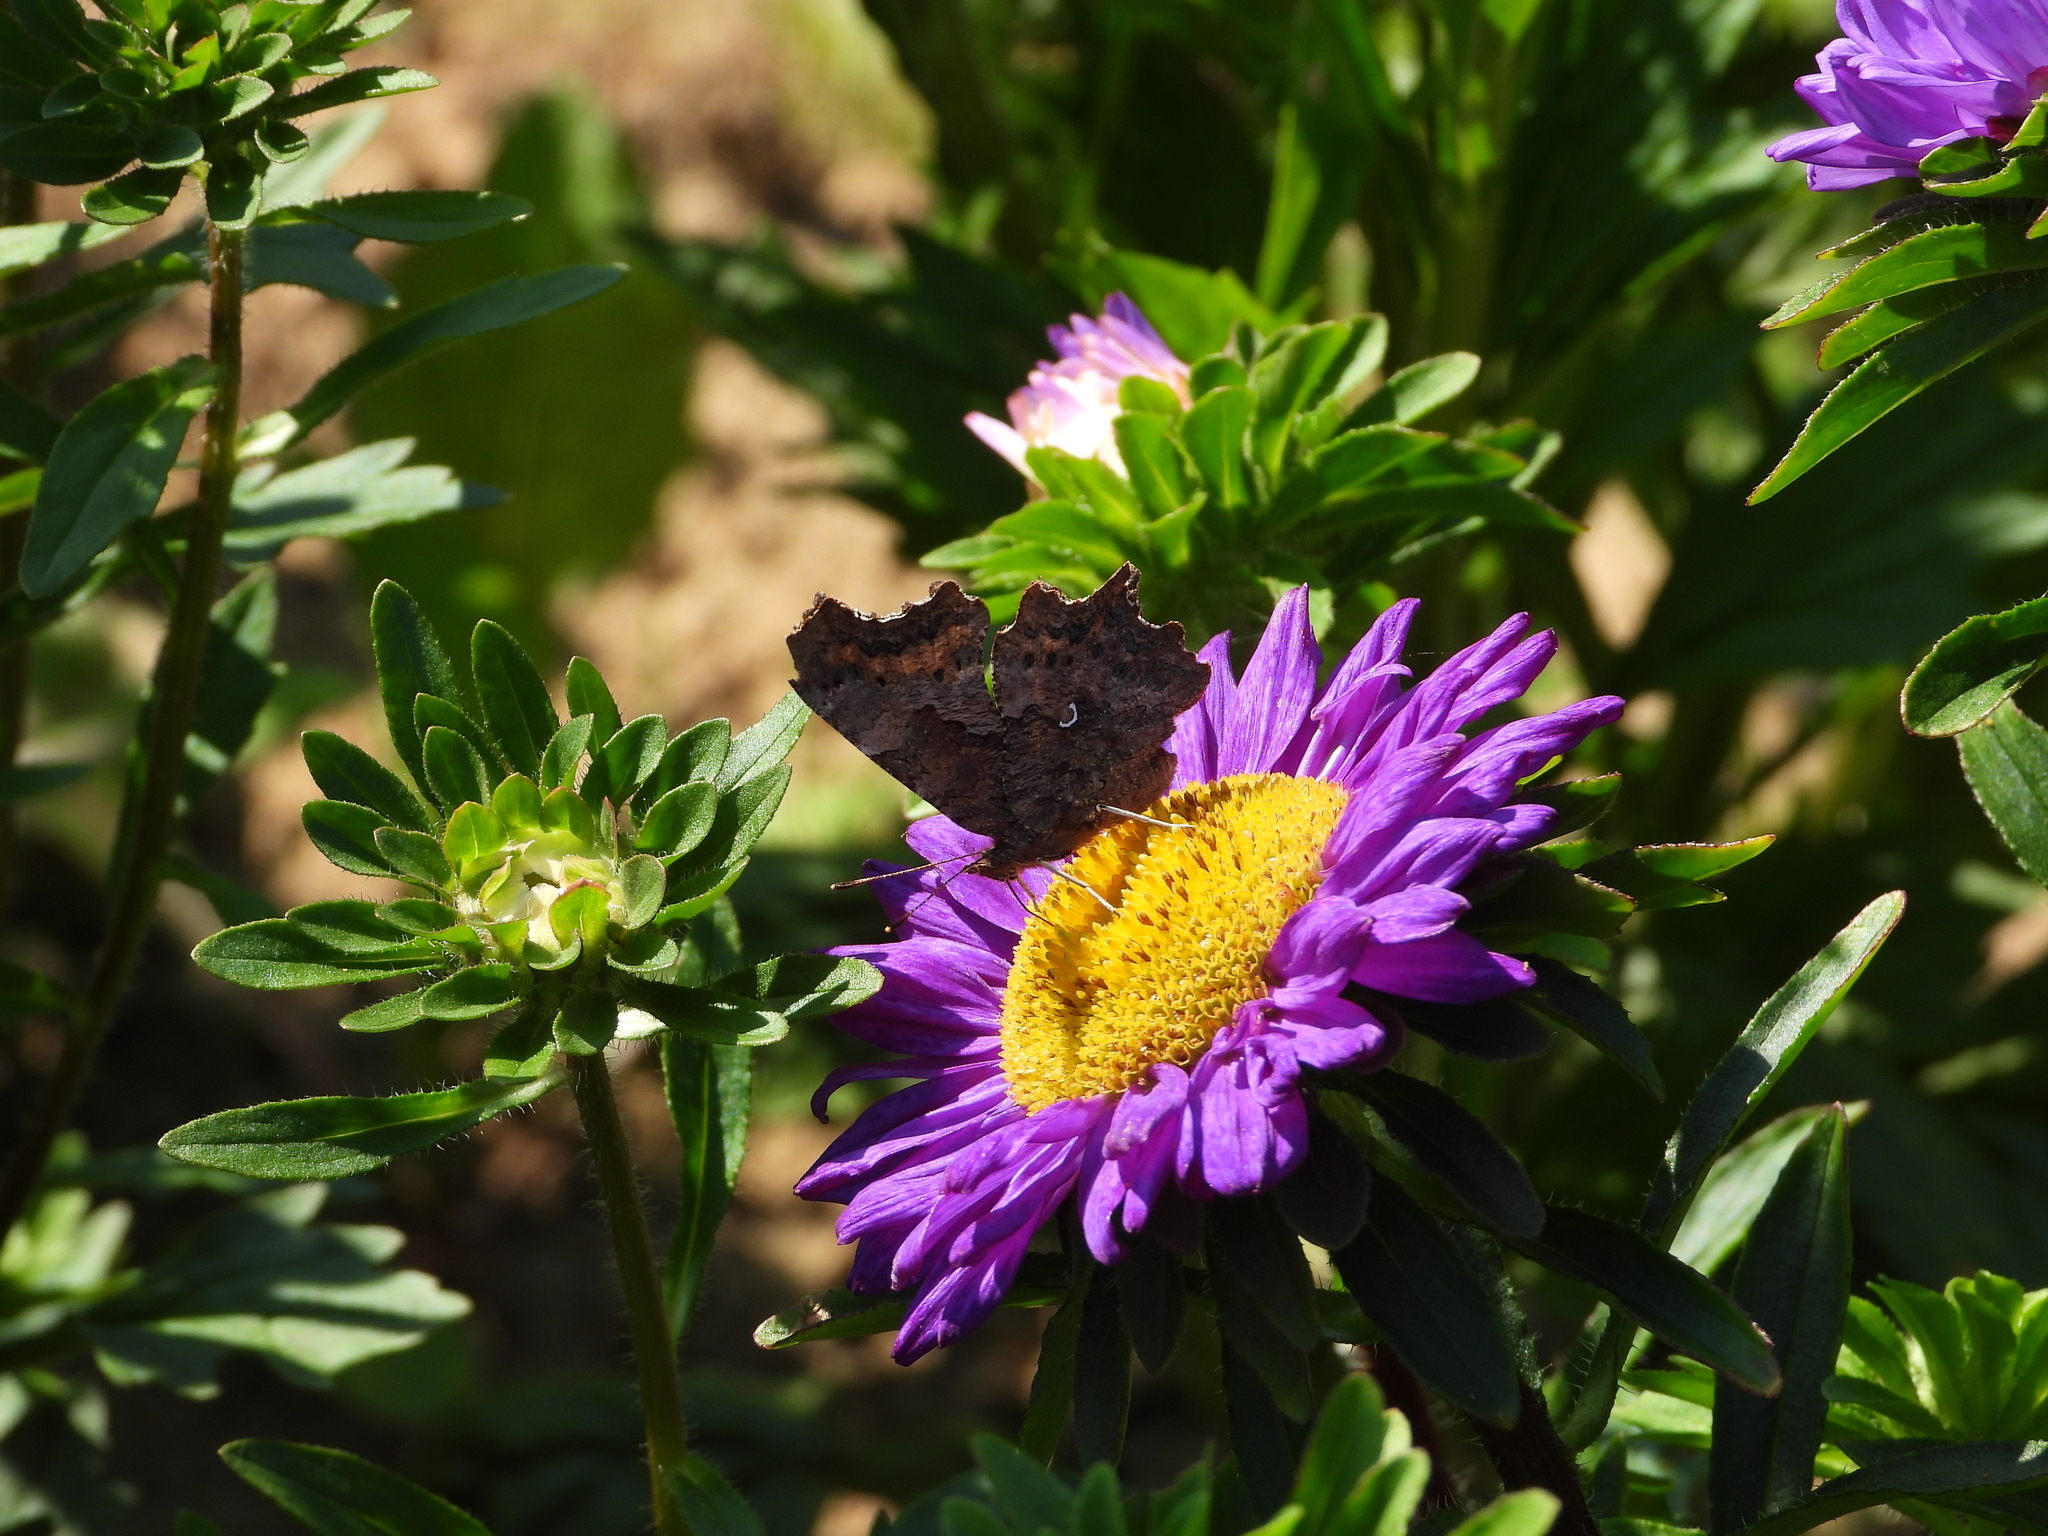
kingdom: Animalia
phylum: Arthropoda
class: Insecta
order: Lepidoptera
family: Nymphalidae
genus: Polygonia
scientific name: Polygonia c-album
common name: Comma
